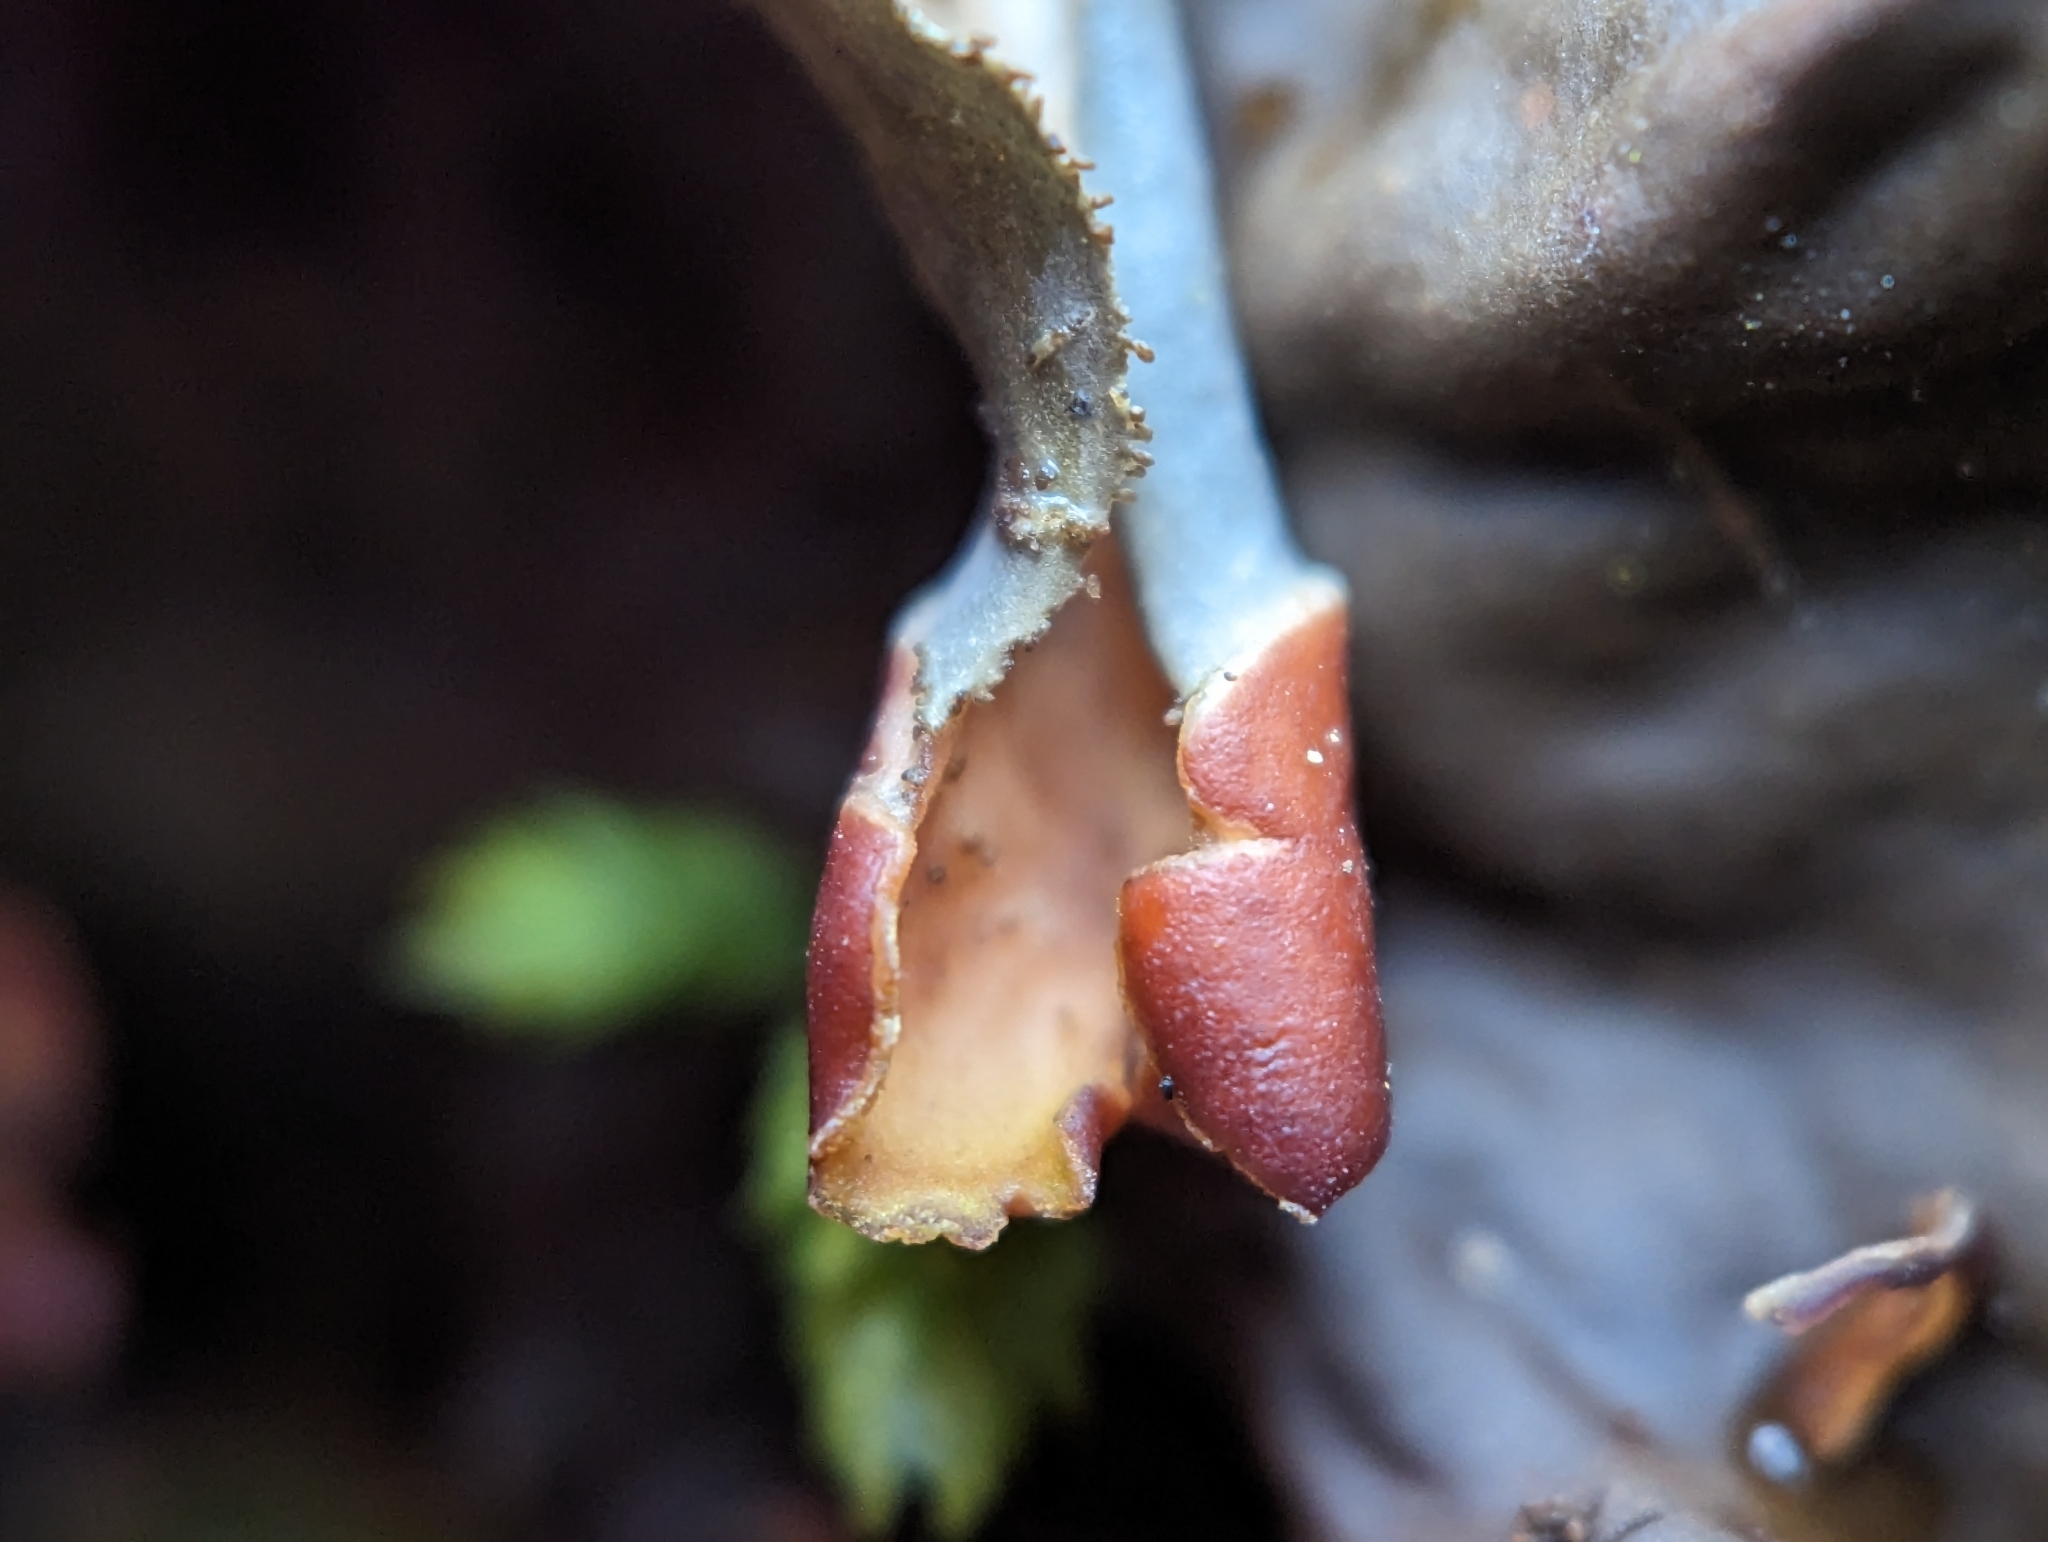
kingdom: Fungi
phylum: Ascomycota
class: Lecanoromycetes
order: Peltigerales
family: Peltigeraceae
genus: Peltigera
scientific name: Peltigera praetextata
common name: Scaly dog-lichen
